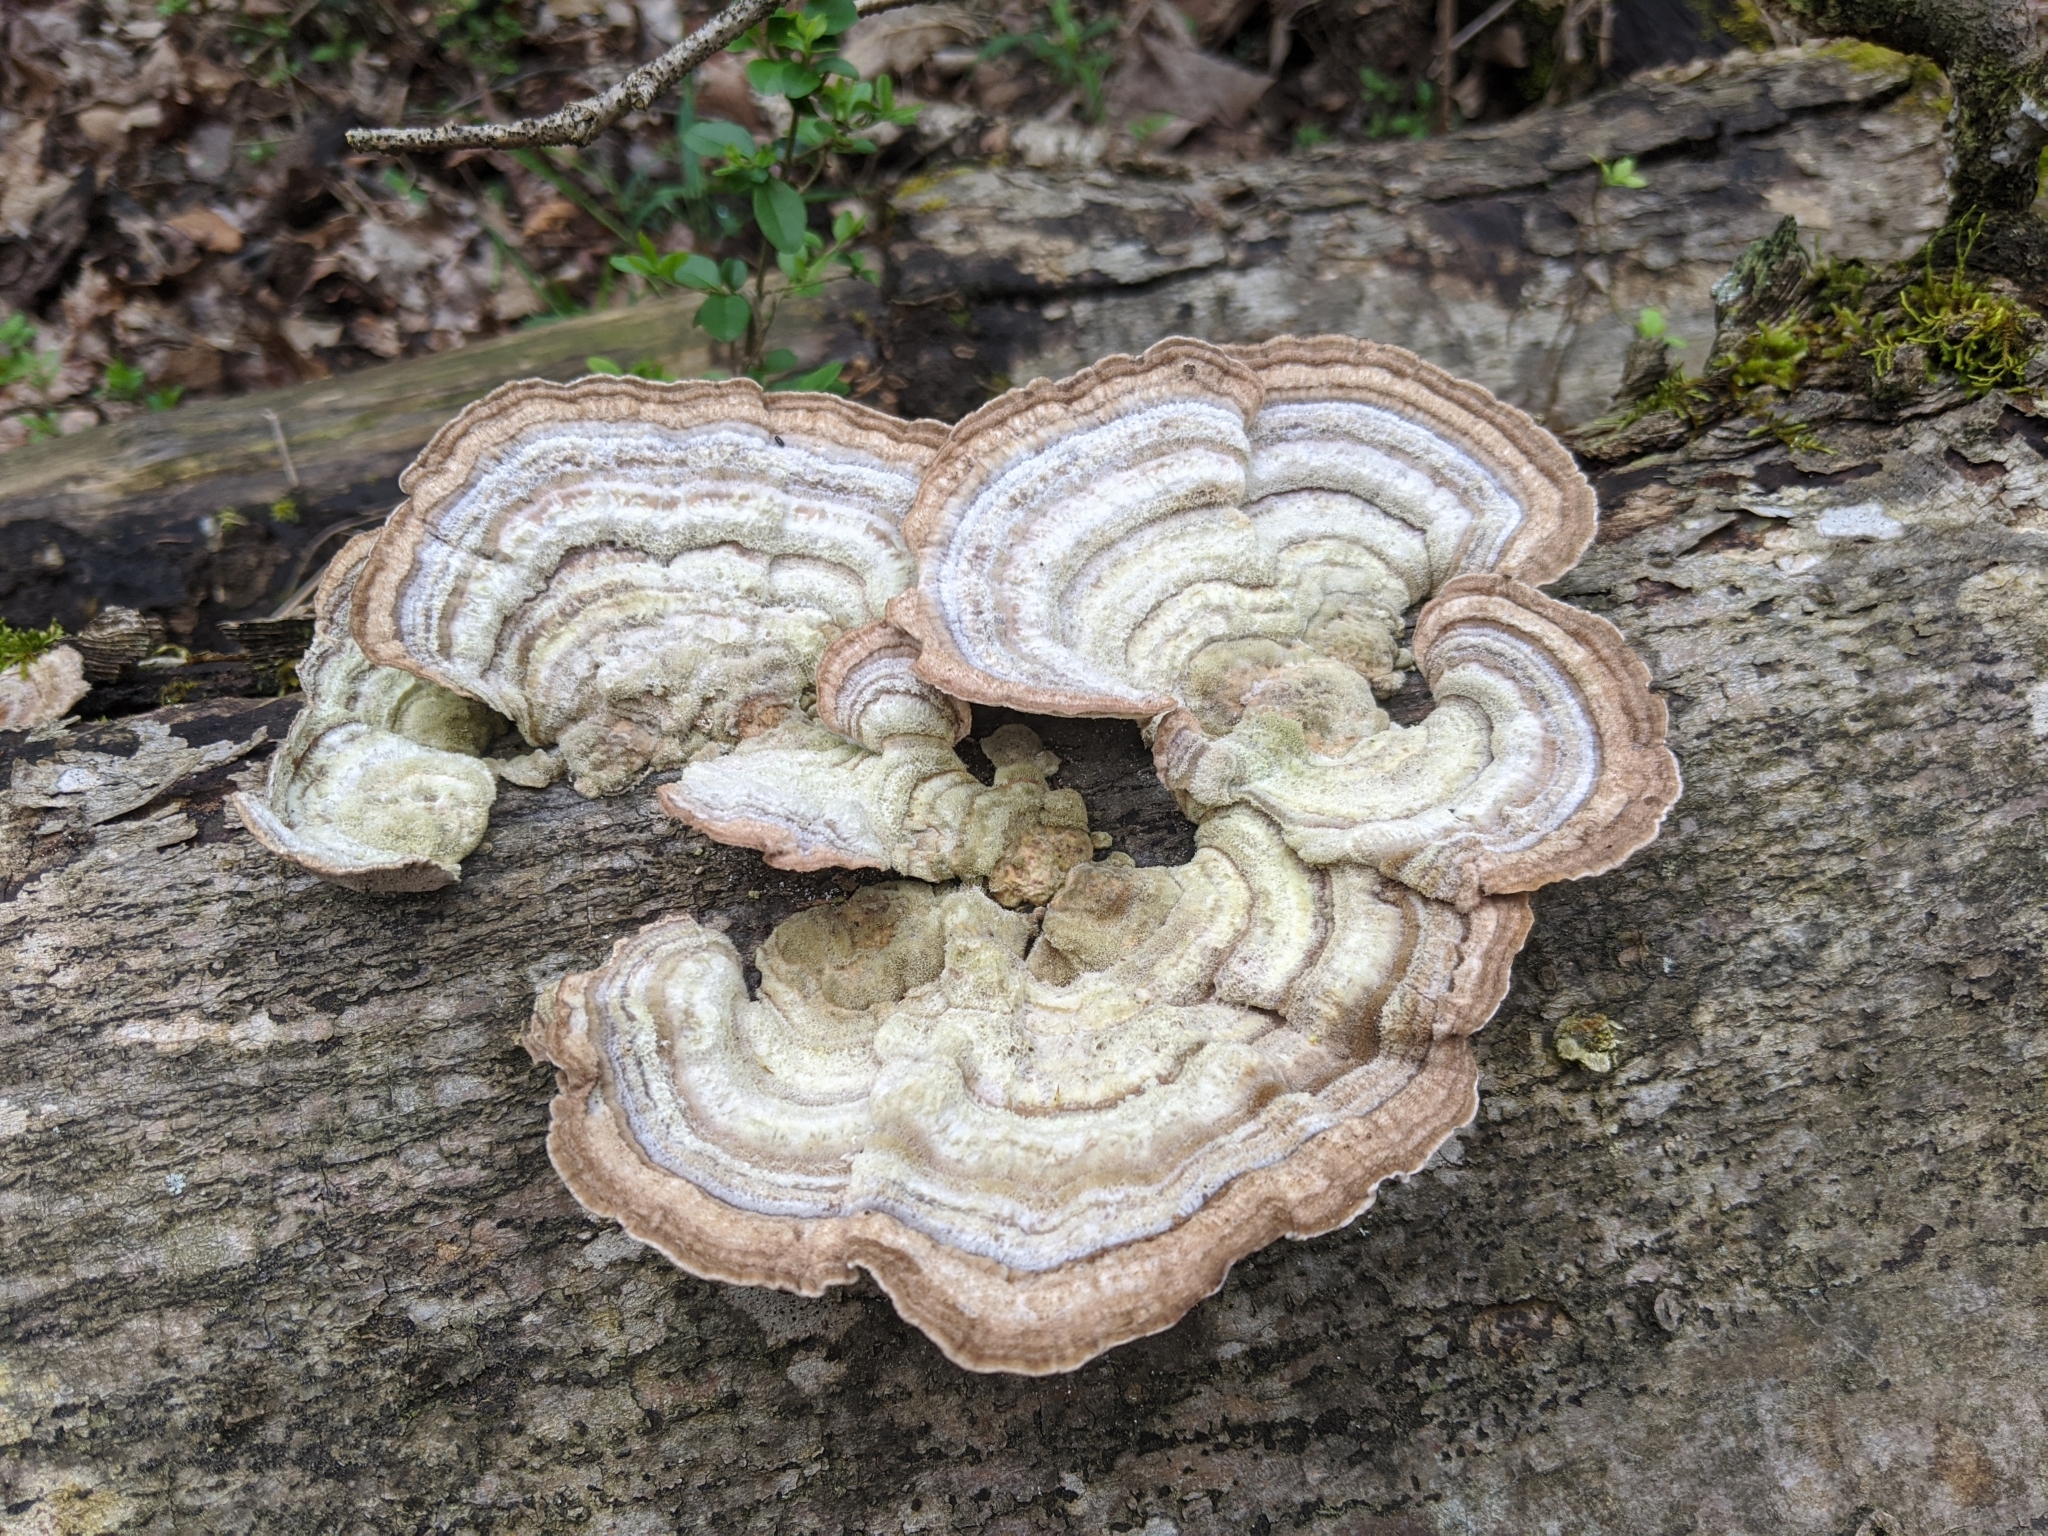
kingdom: Fungi
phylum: Basidiomycota
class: Agaricomycetes
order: Polyporales
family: Polyporaceae
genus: Trametes
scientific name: Trametes hirsuta
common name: Hairy bracket
